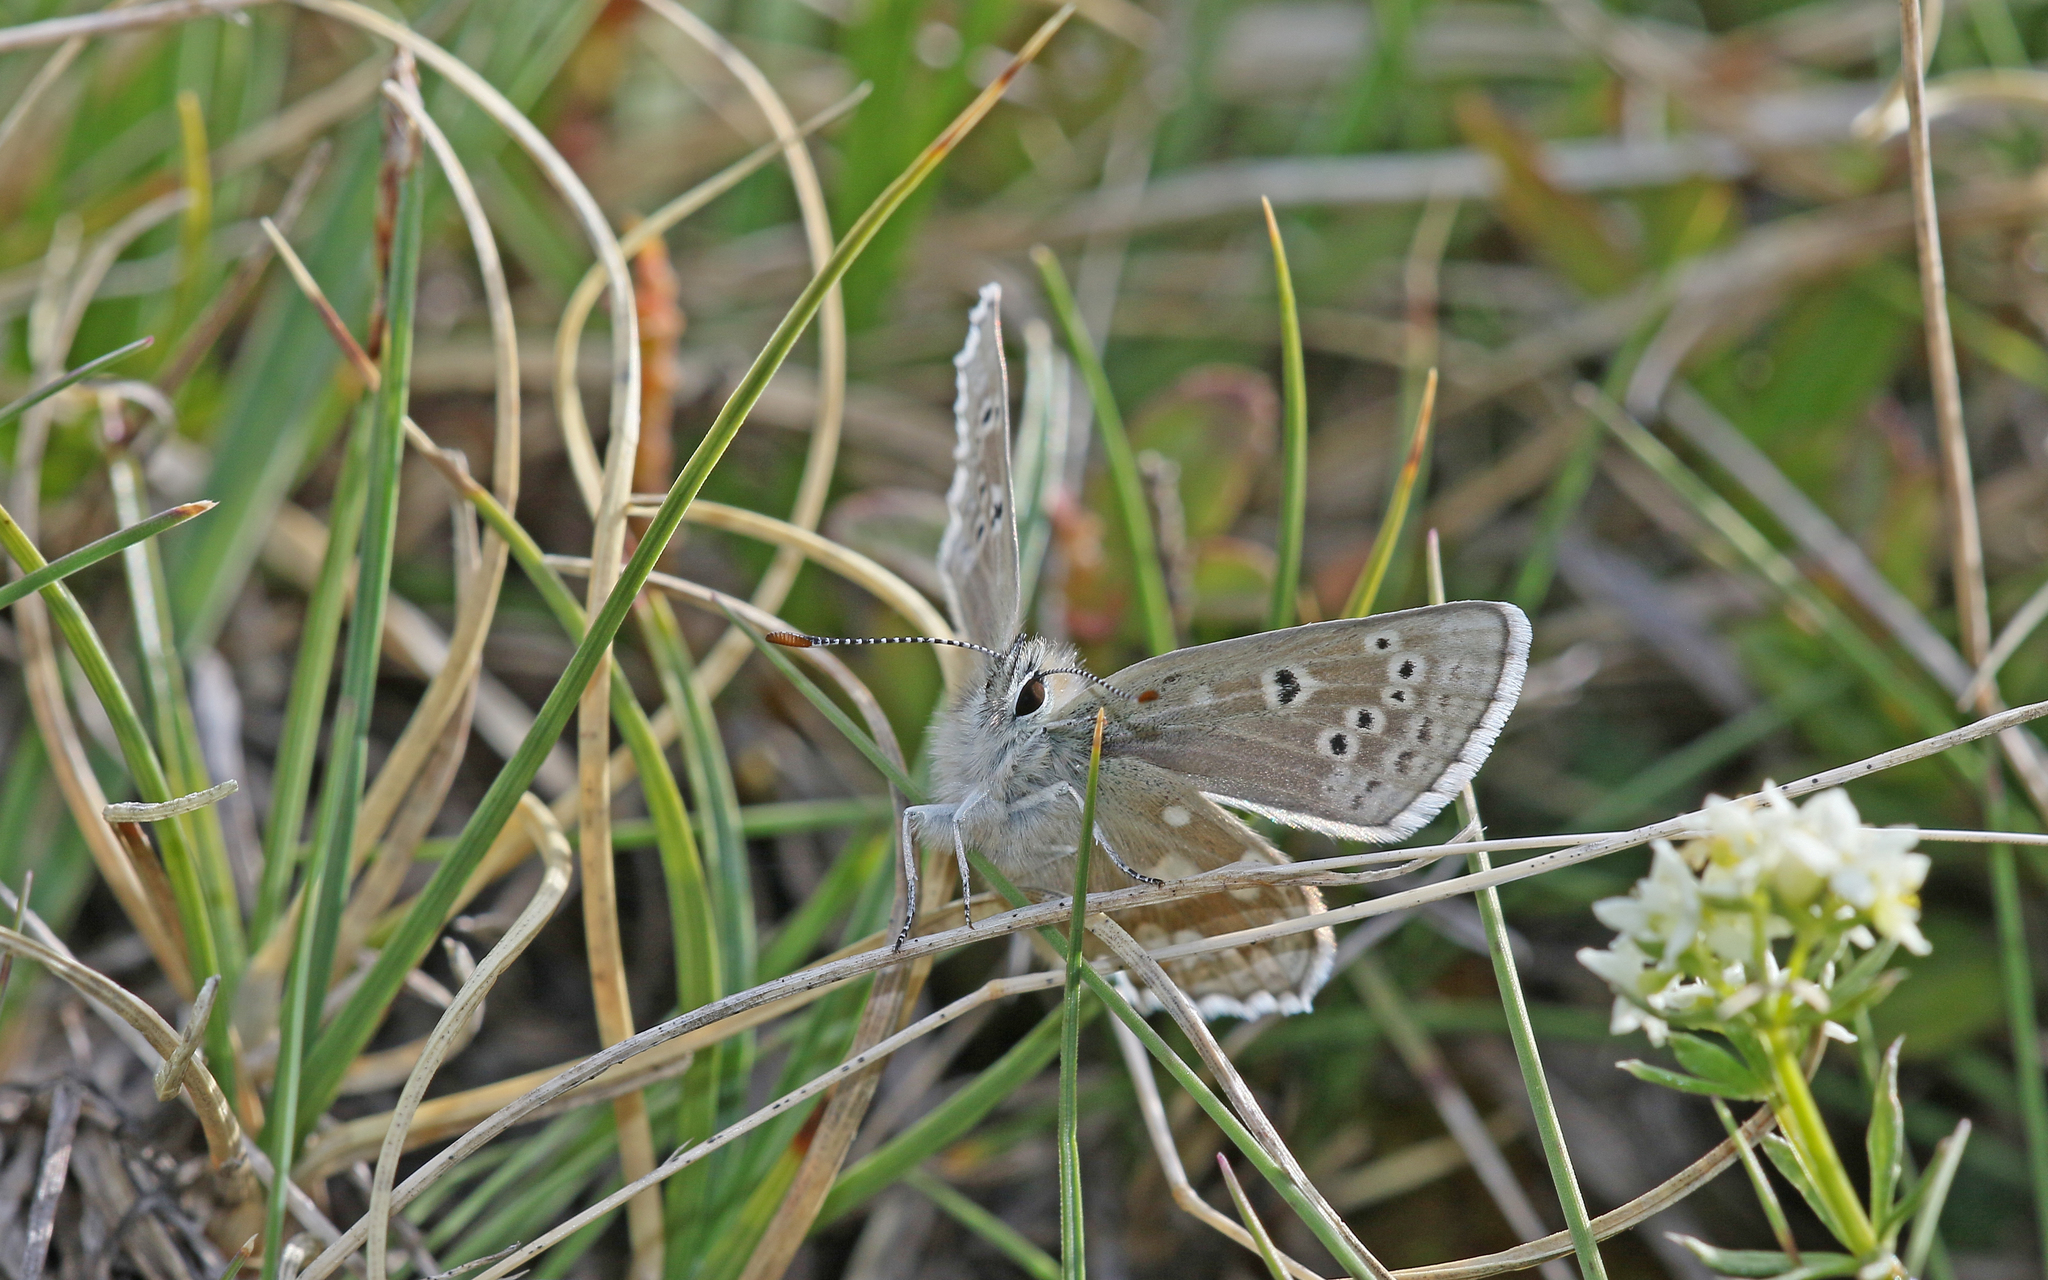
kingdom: Animalia
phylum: Arthropoda
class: Insecta
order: Lepidoptera
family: Lycaenidae
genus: Agriades
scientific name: Agriades glandon
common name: Glandon blue
